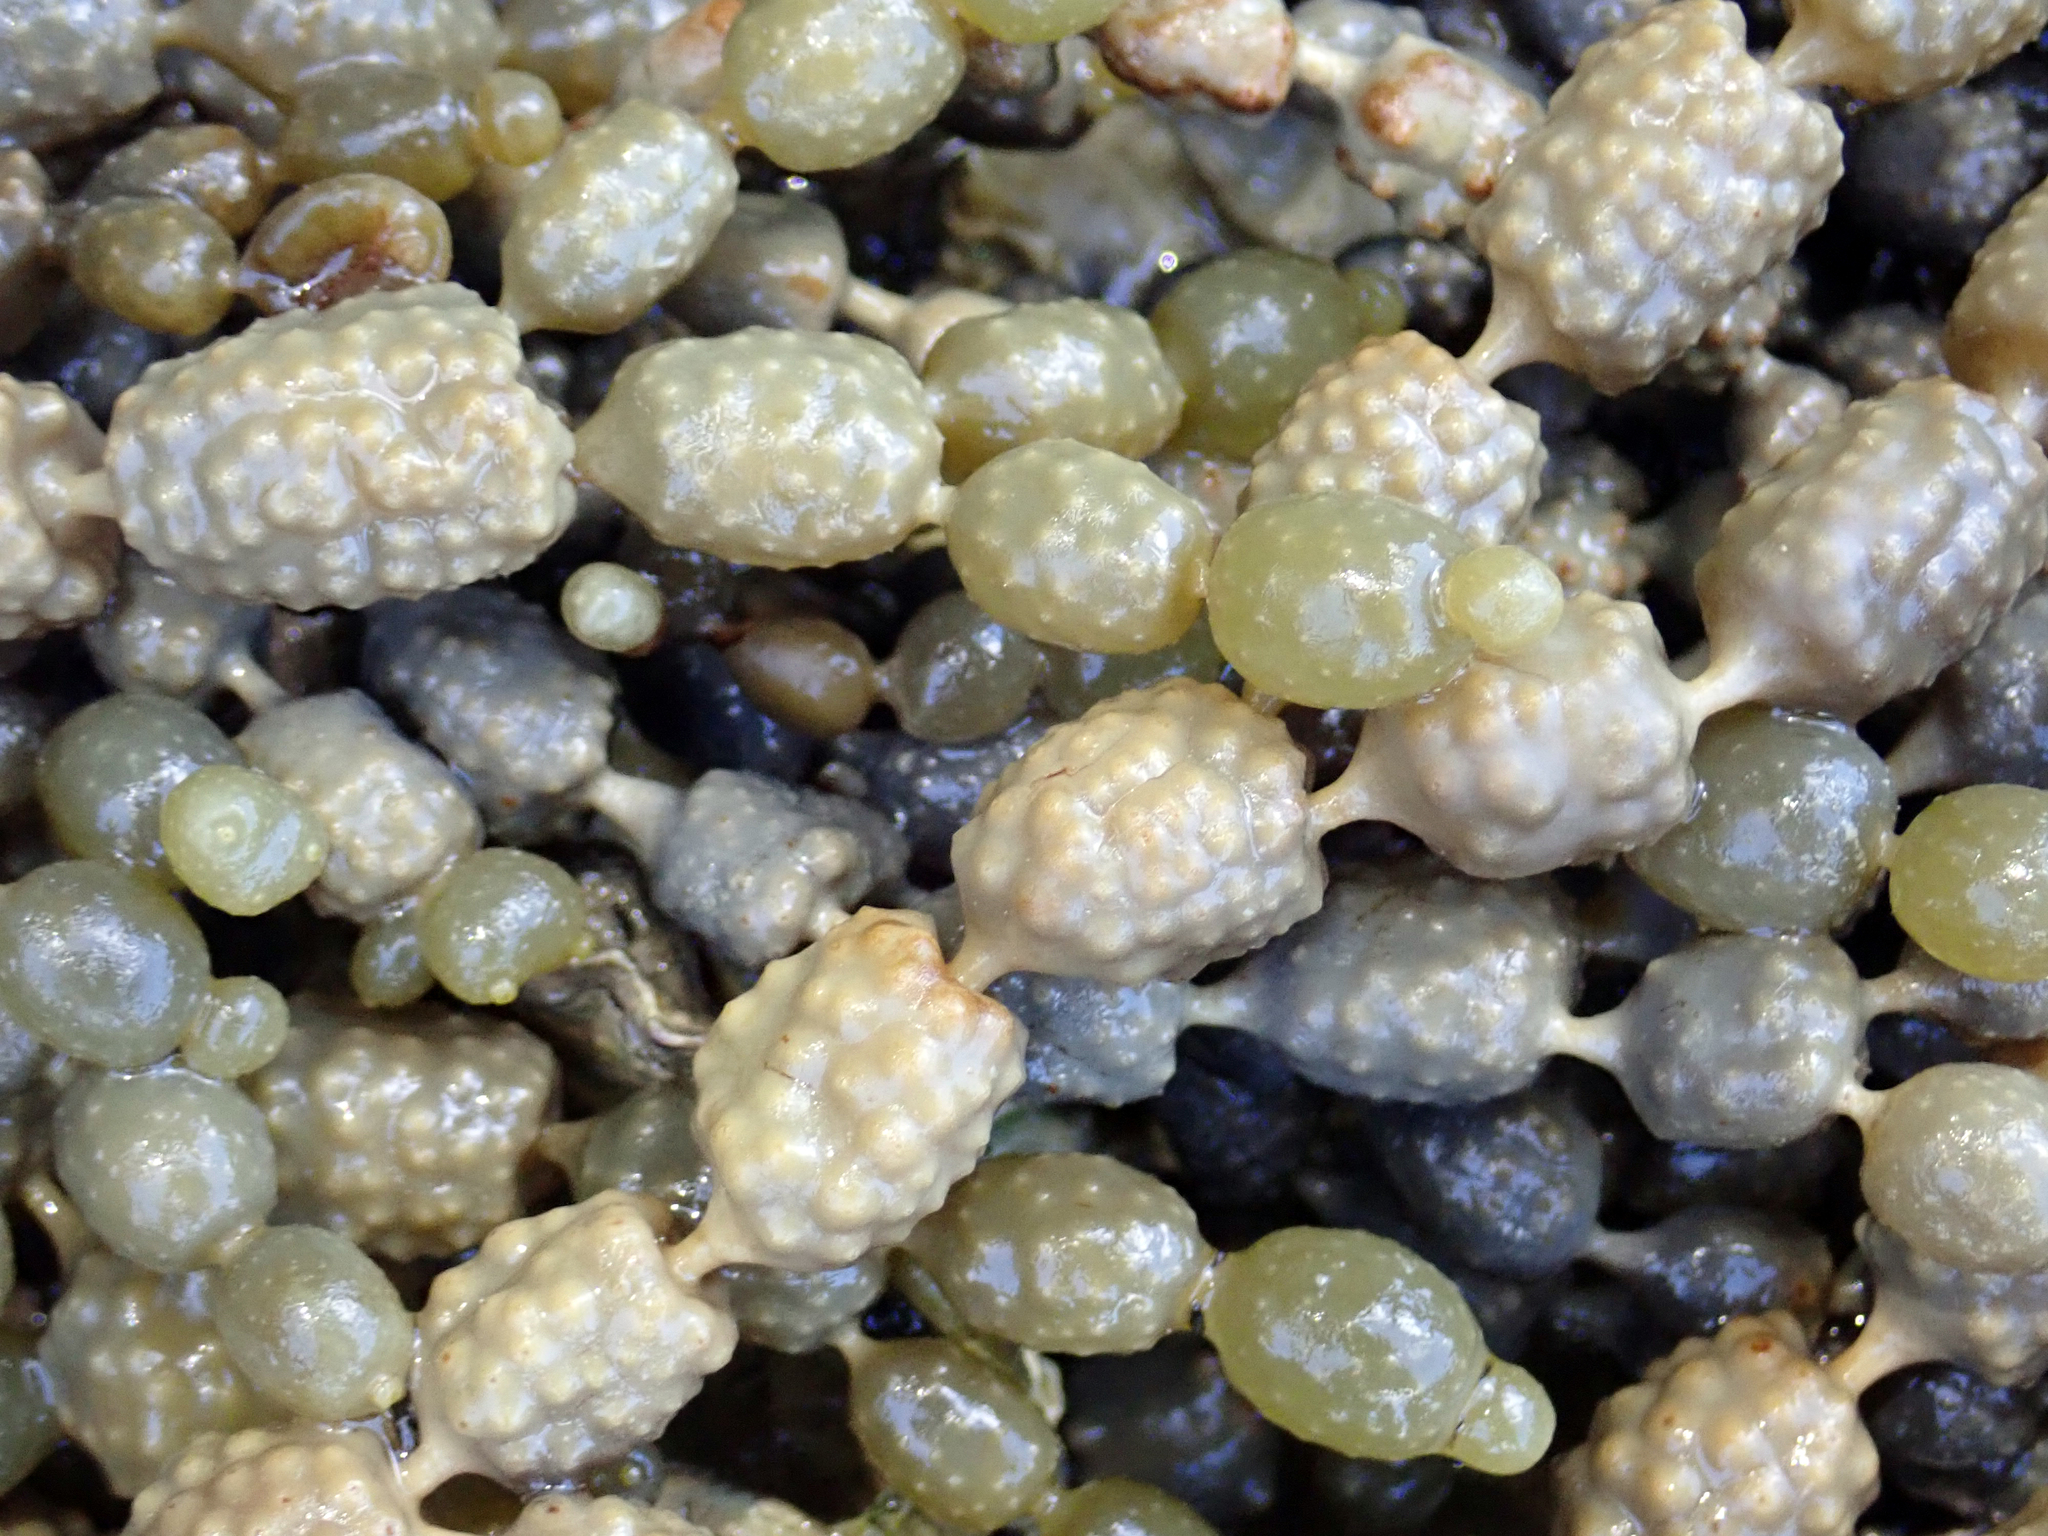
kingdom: Chromista
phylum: Ochrophyta
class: Phaeophyceae
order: Fucales
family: Hormosiraceae
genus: Hormosira
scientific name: Hormosira banksii
